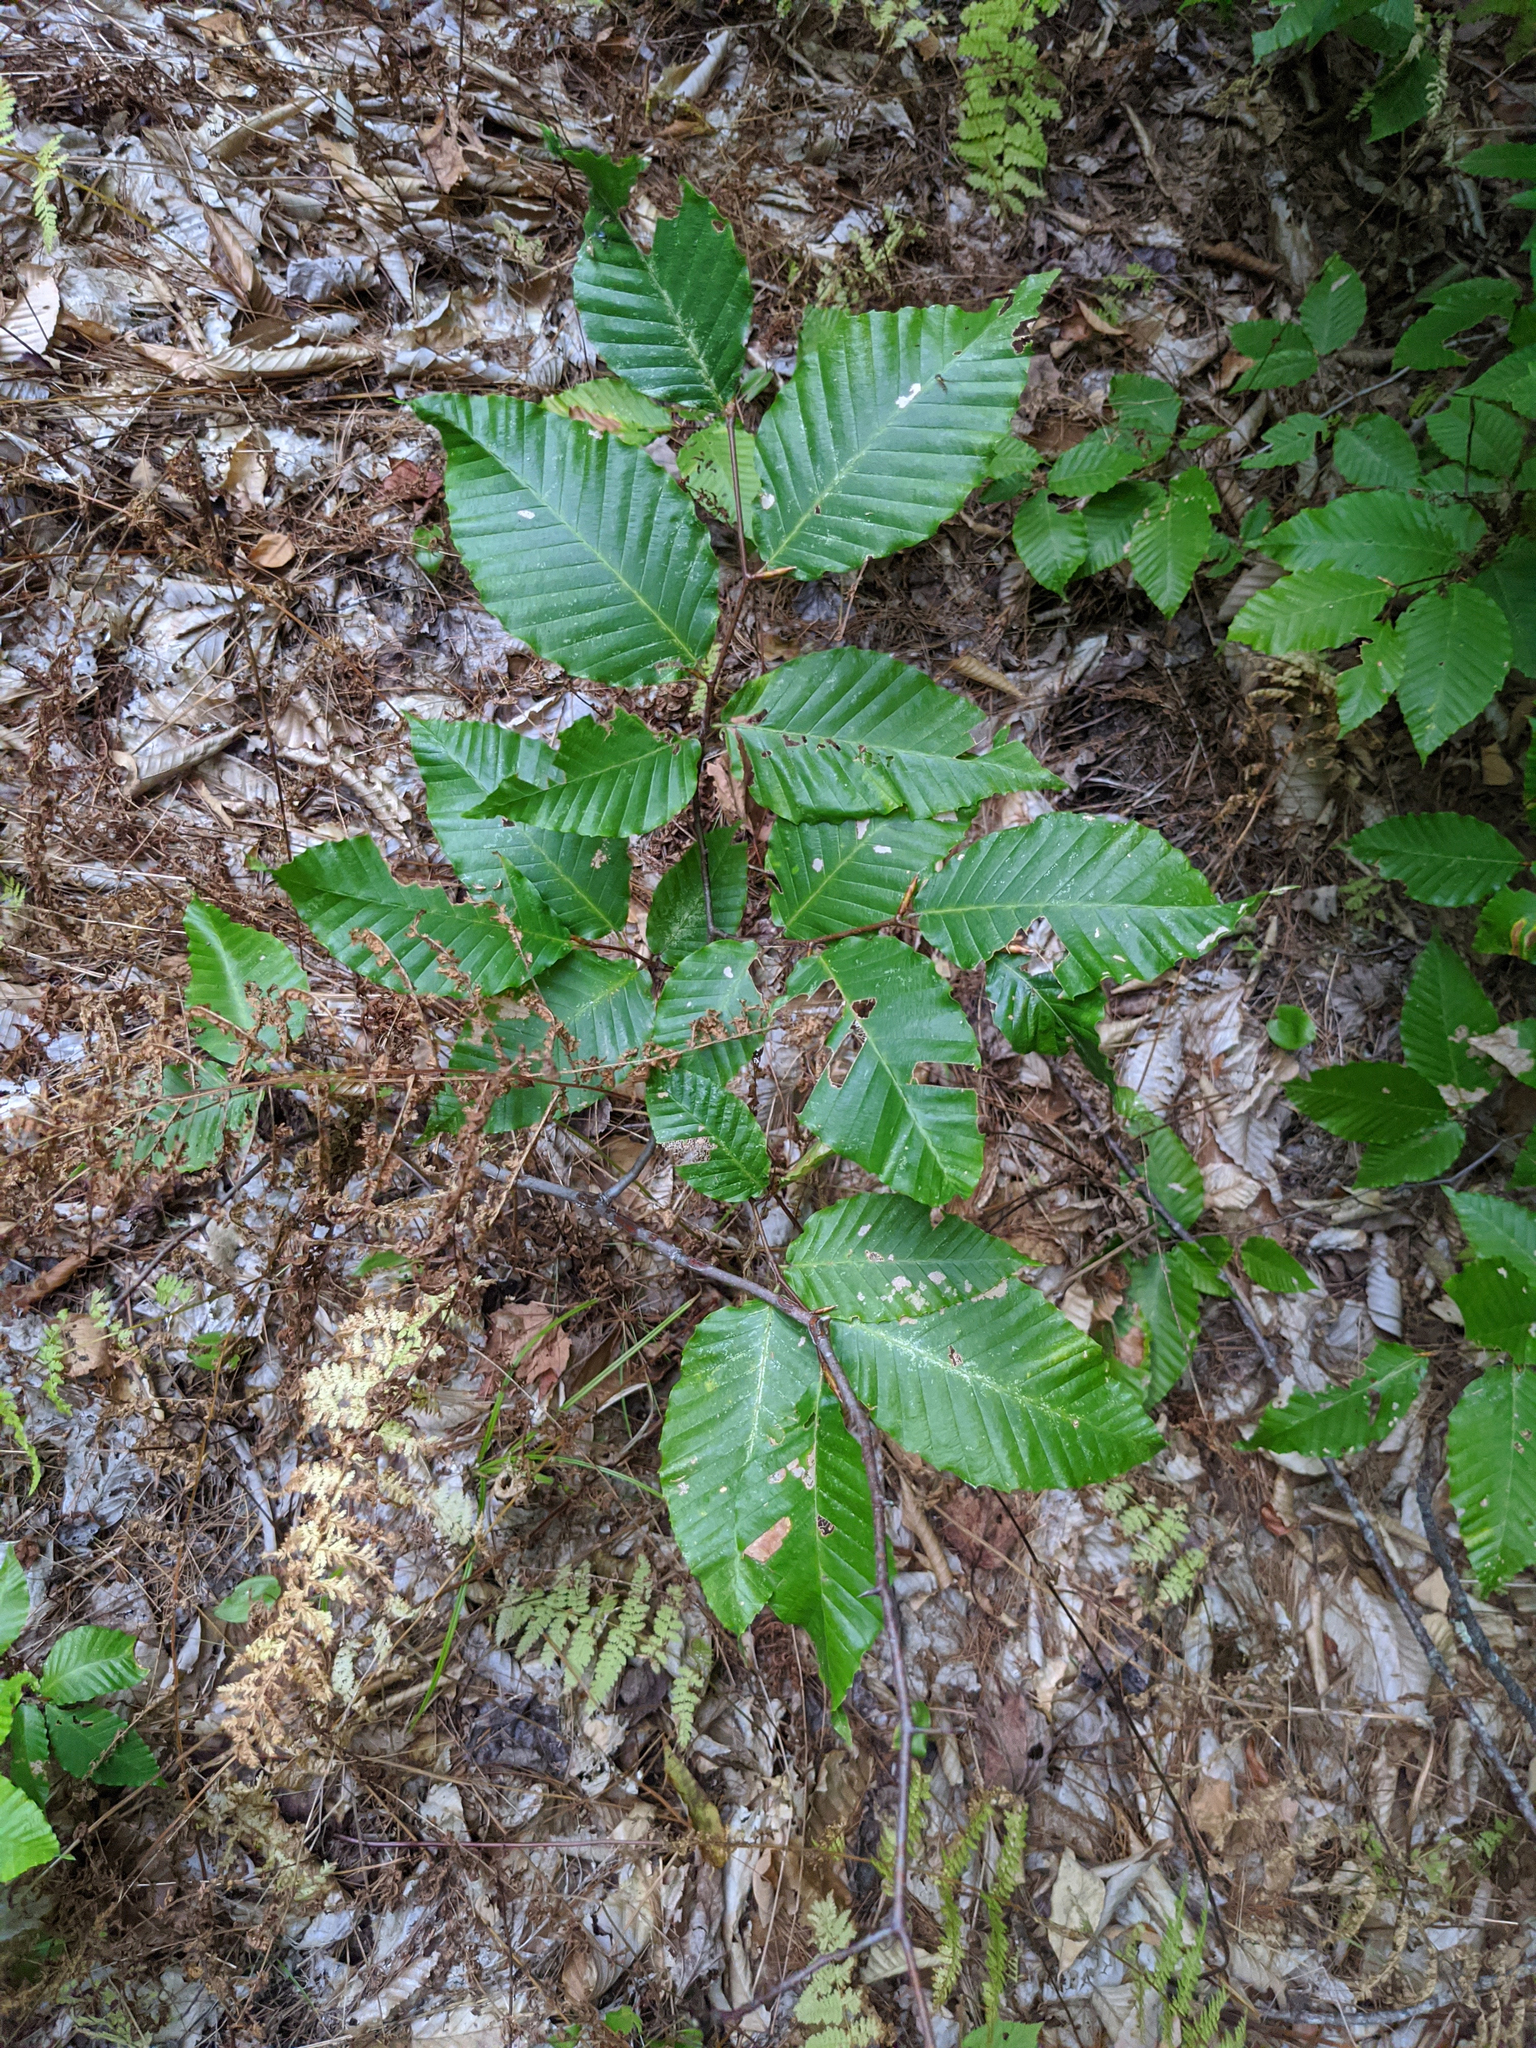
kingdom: Plantae
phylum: Tracheophyta
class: Magnoliopsida
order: Fagales
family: Fagaceae
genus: Fagus
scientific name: Fagus grandifolia
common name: American beech
